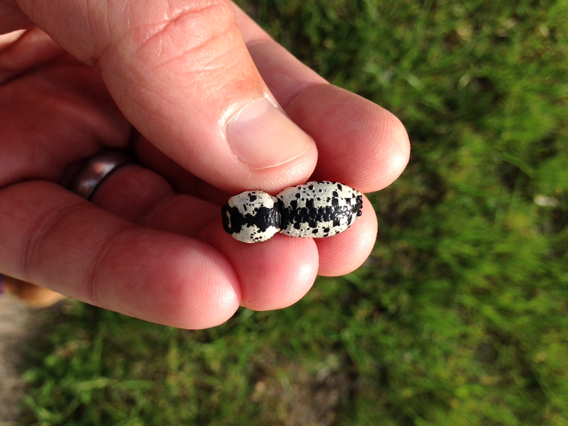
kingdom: Animalia
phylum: Arthropoda
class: Insecta
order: Coleoptera
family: Zopheridae
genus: Zopherus
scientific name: Zopherus nodulosus
